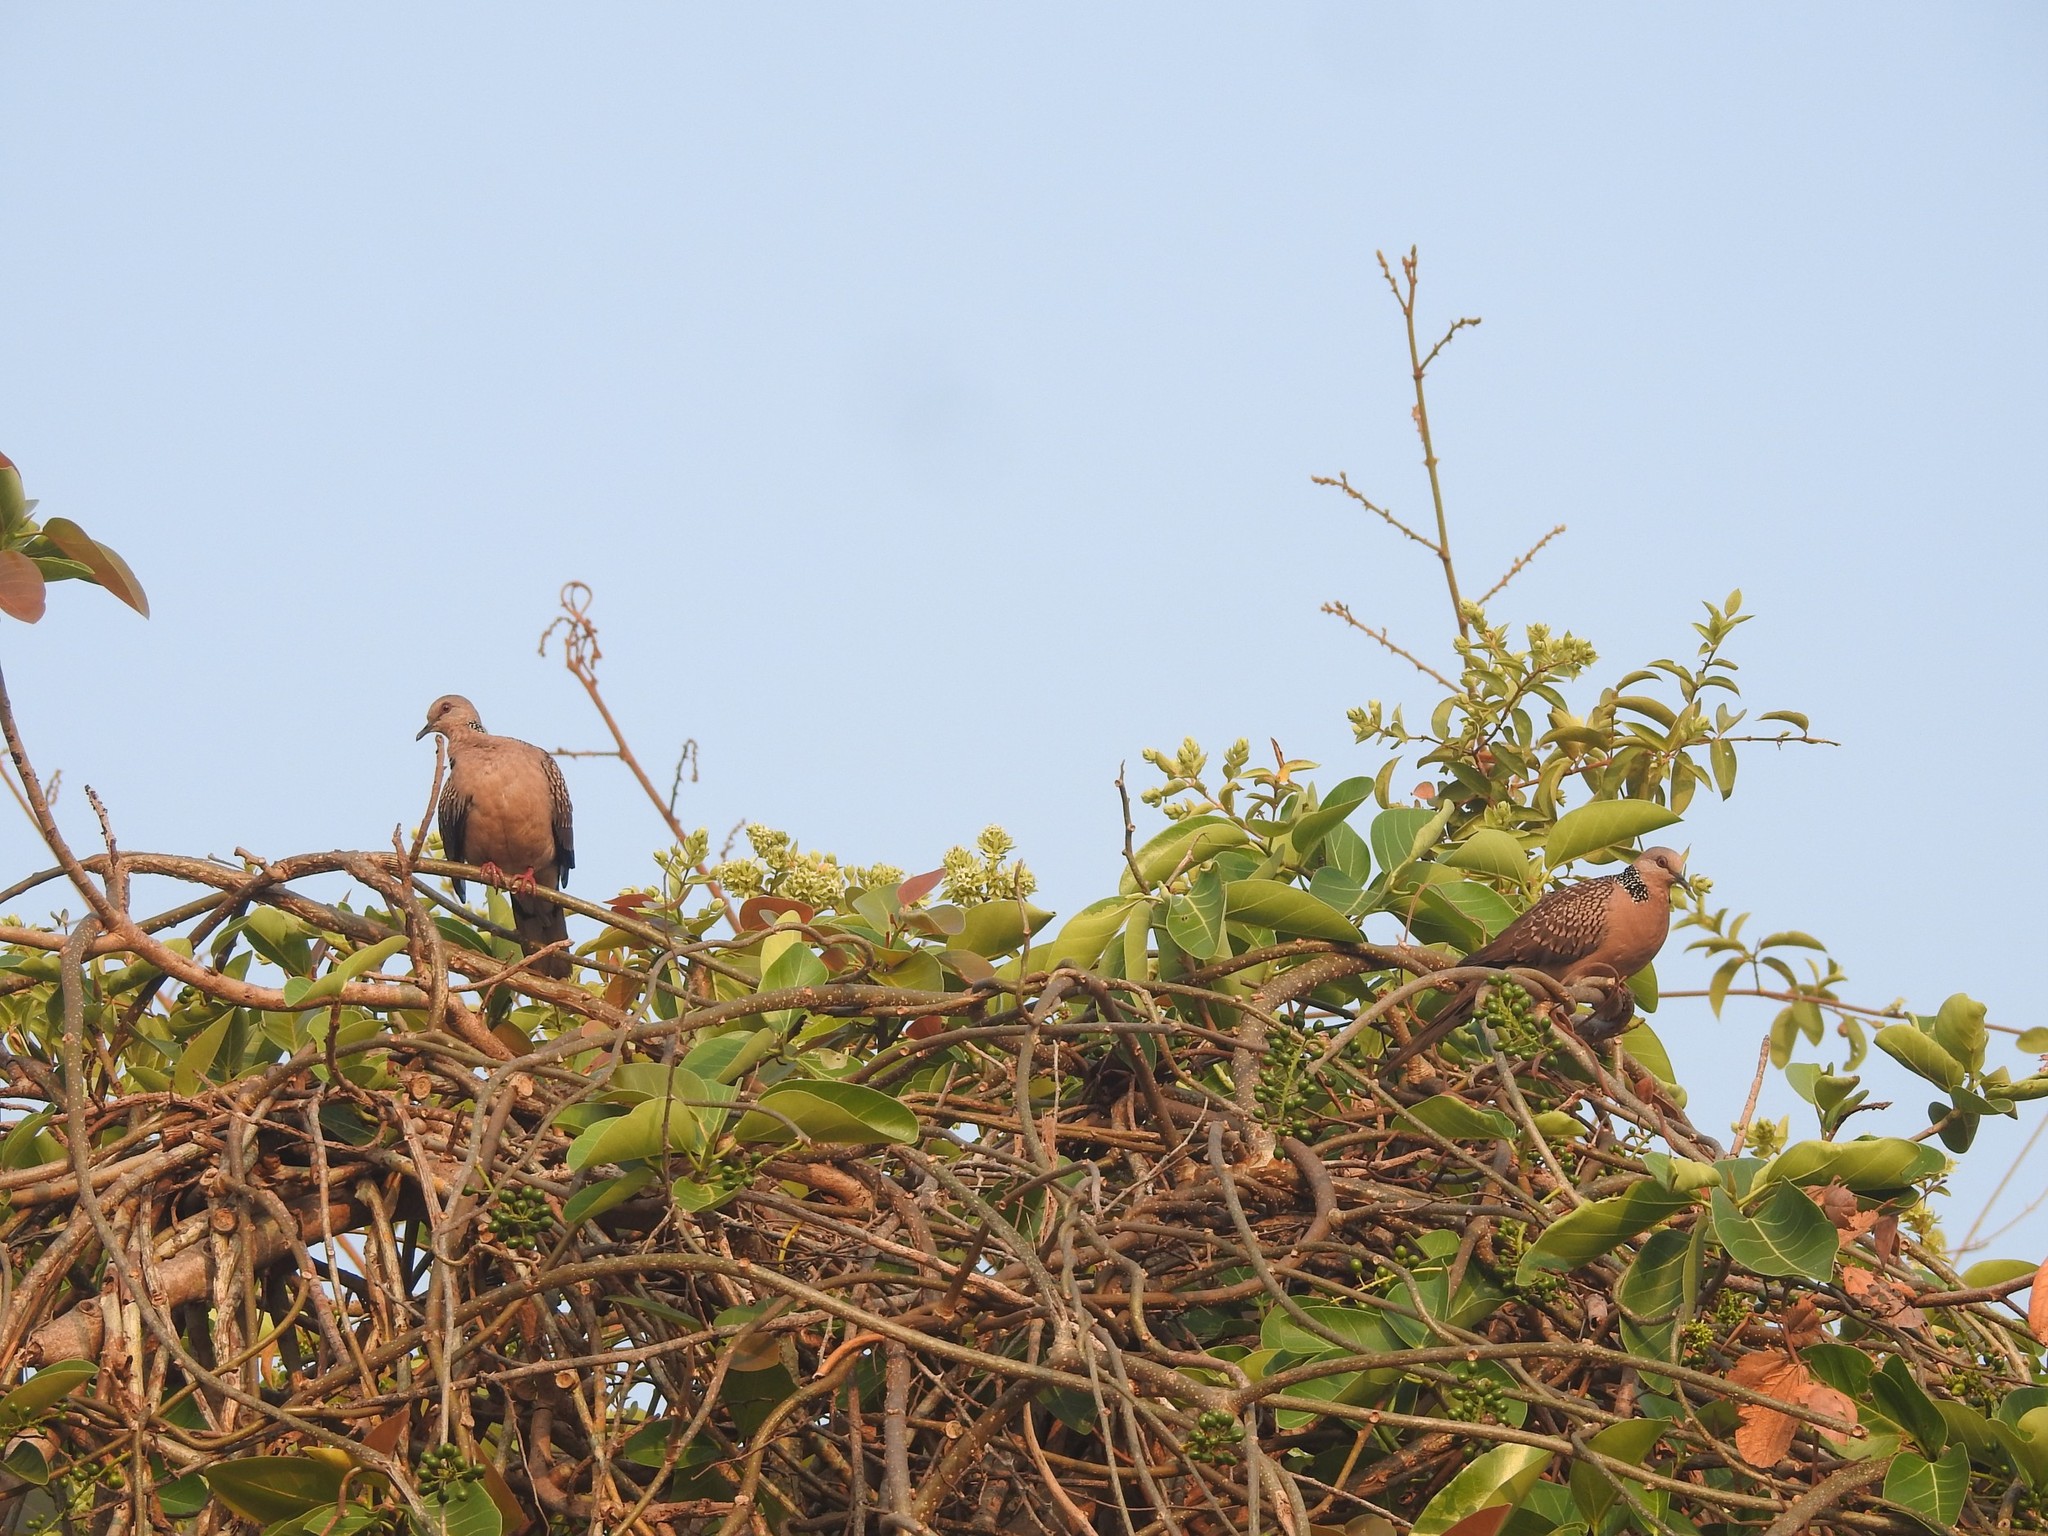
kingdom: Animalia
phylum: Chordata
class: Aves
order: Columbiformes
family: Columbidae
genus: Spilopelia
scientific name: Spilopelia chinensis
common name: Spotted dove
